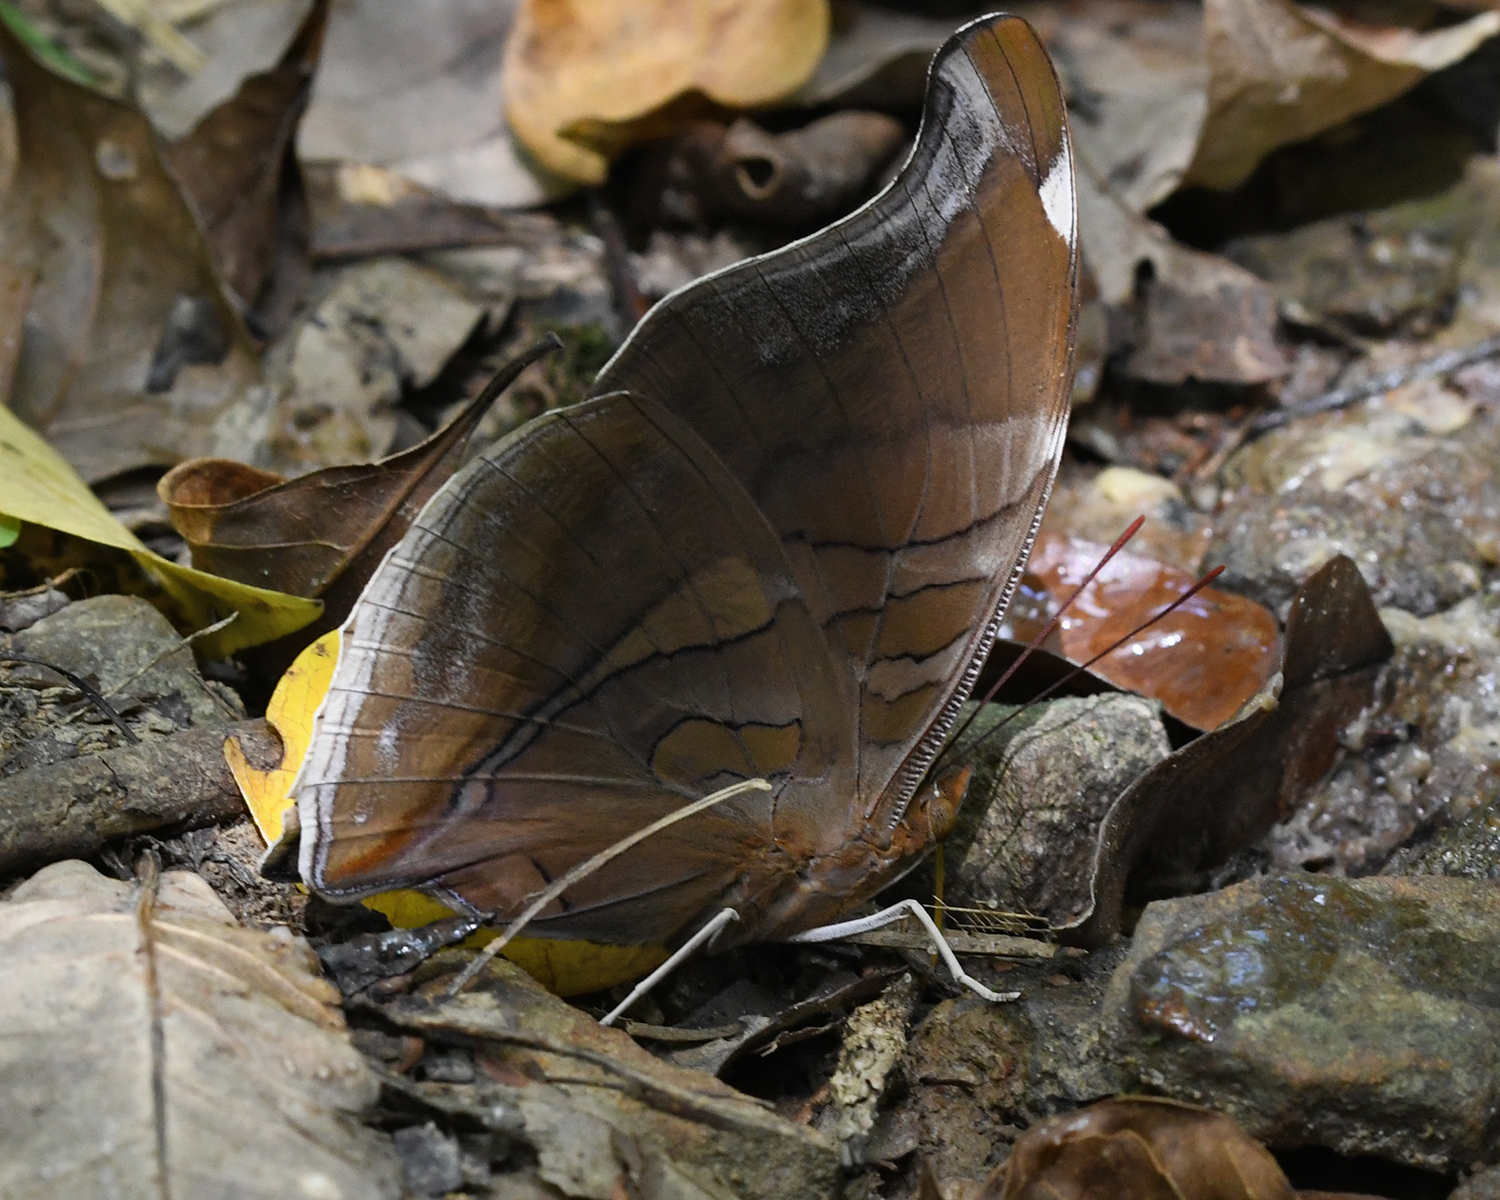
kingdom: Animalia
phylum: Arthropoda
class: Insecta
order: Lepidoptera
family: Nymphalidae
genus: Historis
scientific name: Historis odius
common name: Orion cecropian
